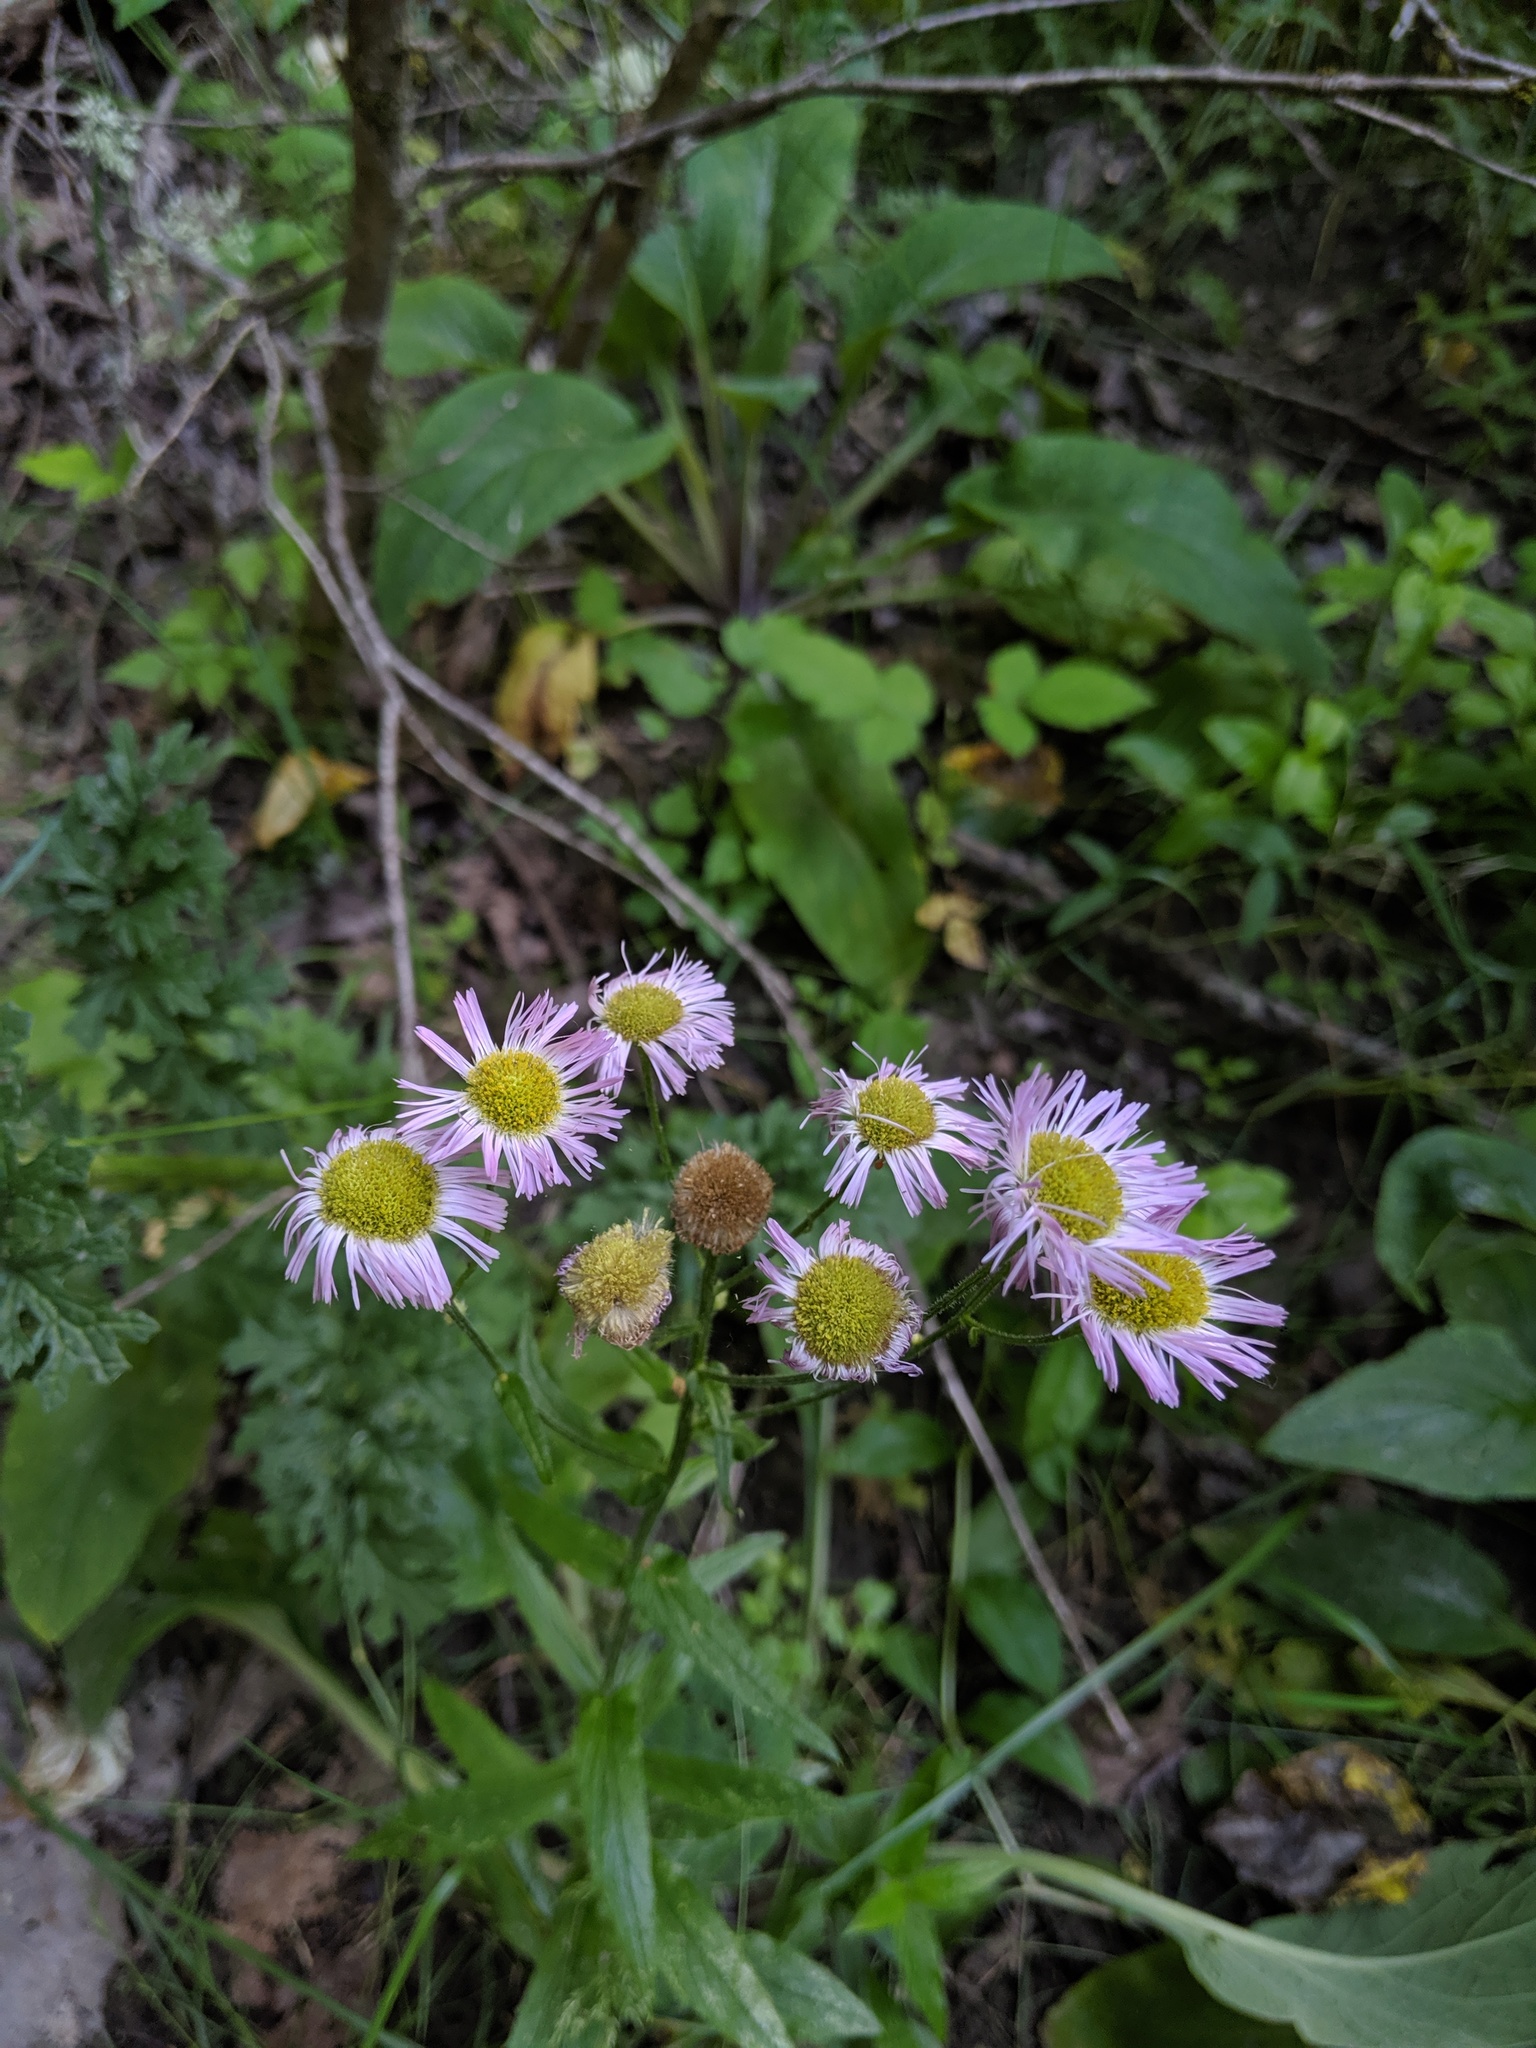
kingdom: Plantae
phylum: Tracheophyta
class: Magnoliopsida
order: Asterales
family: Asteraceae
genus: Erigeron
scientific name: Erigeron philadelphicus
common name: Robin's-plantain
